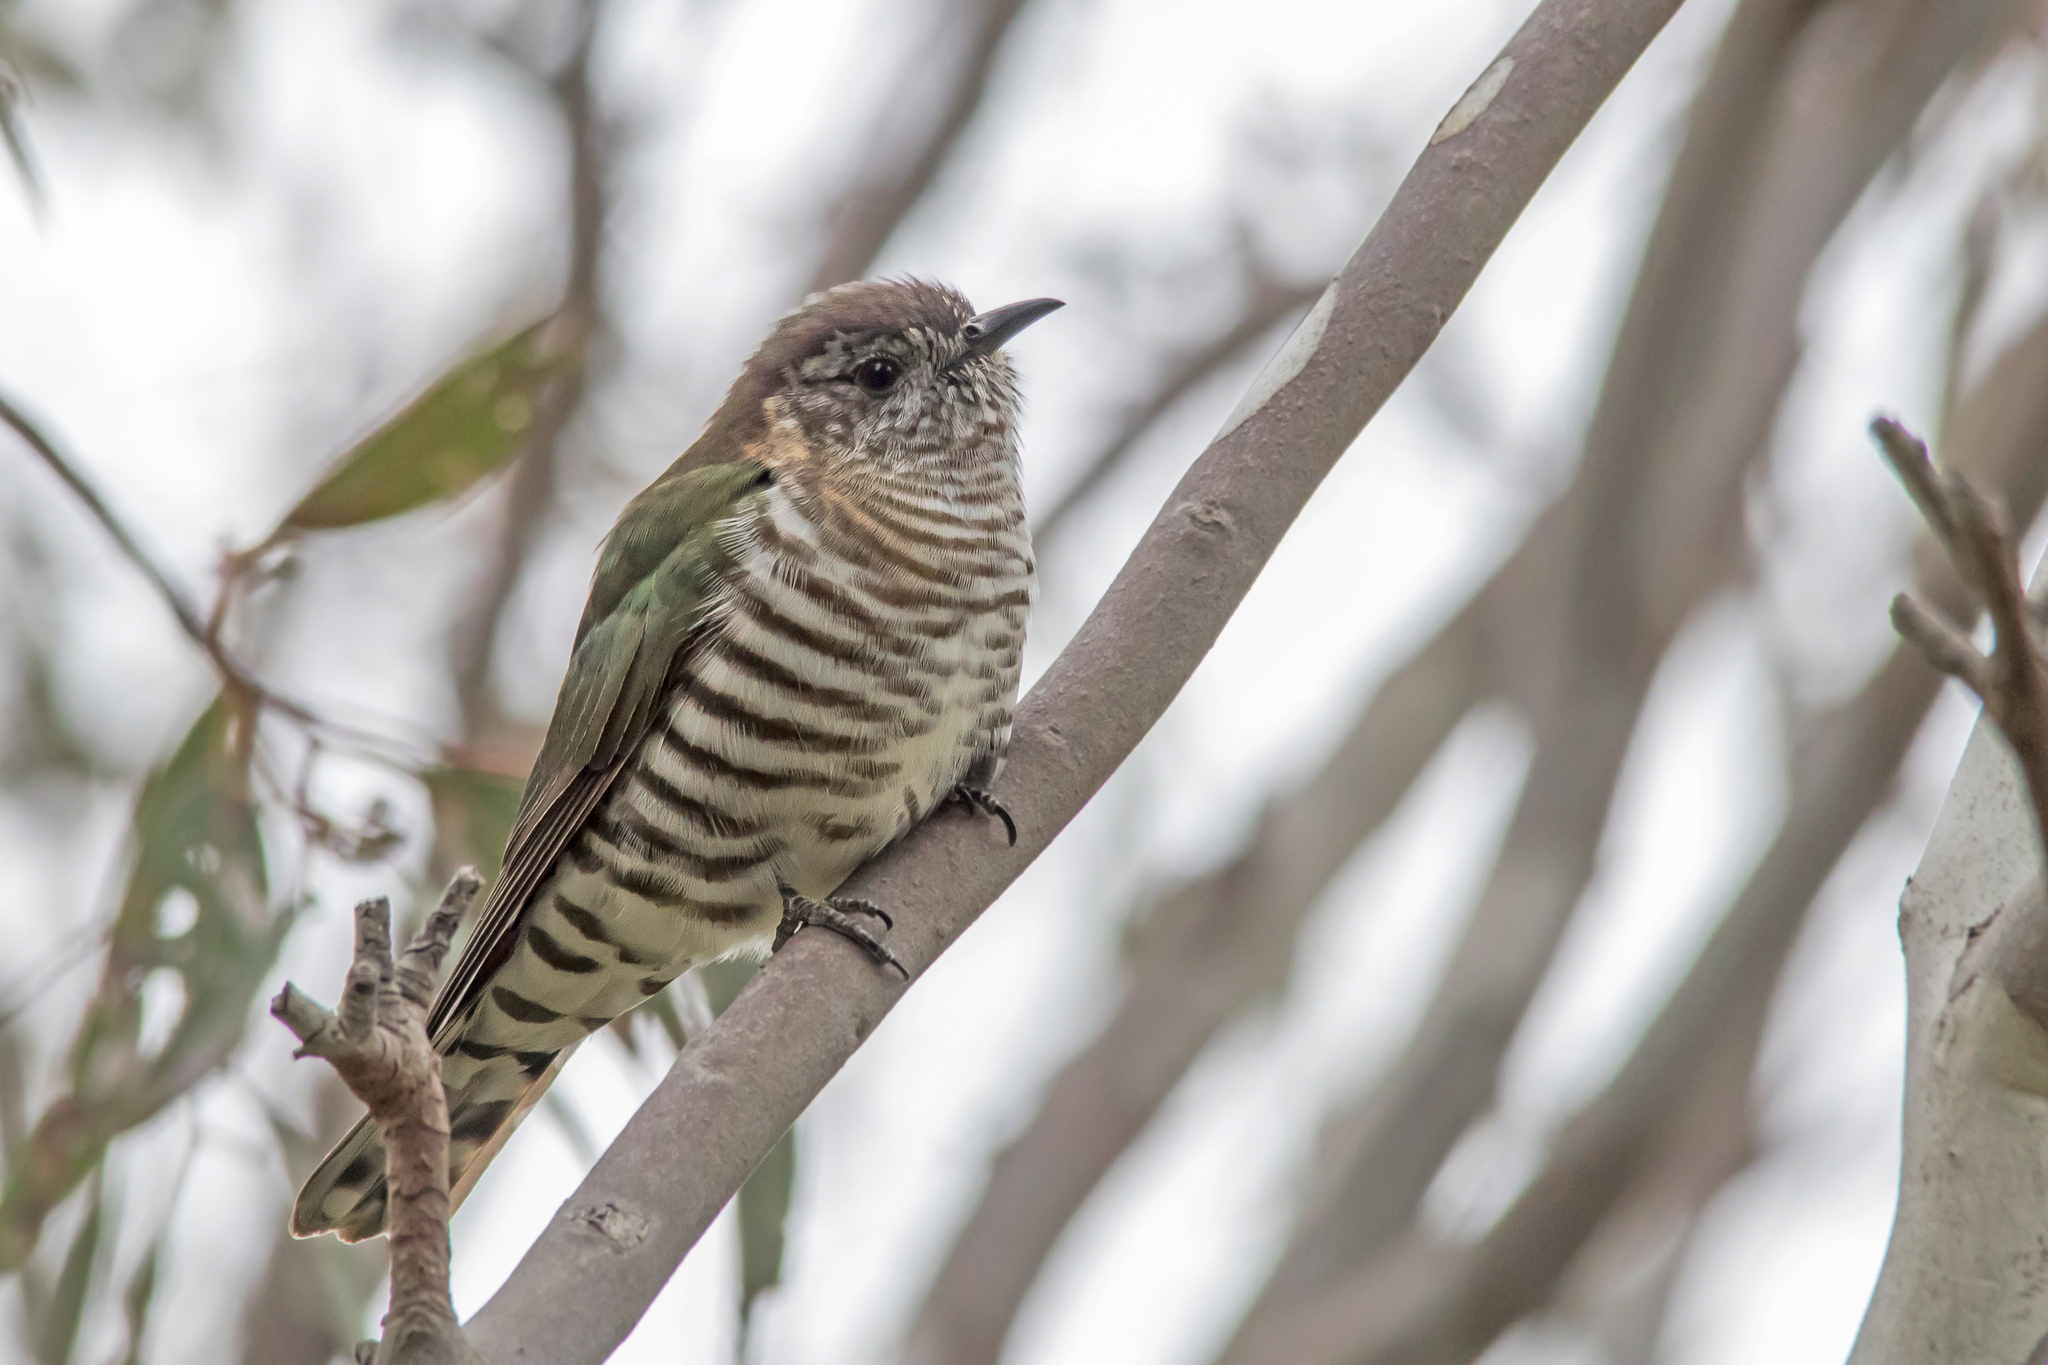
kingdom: Animalia
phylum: Chordata
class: Aves
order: Cuculiformes
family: Cuculidae
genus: Chrysococcyx
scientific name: Chrysococcyx lucidus
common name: Shining bronze cuckoo
